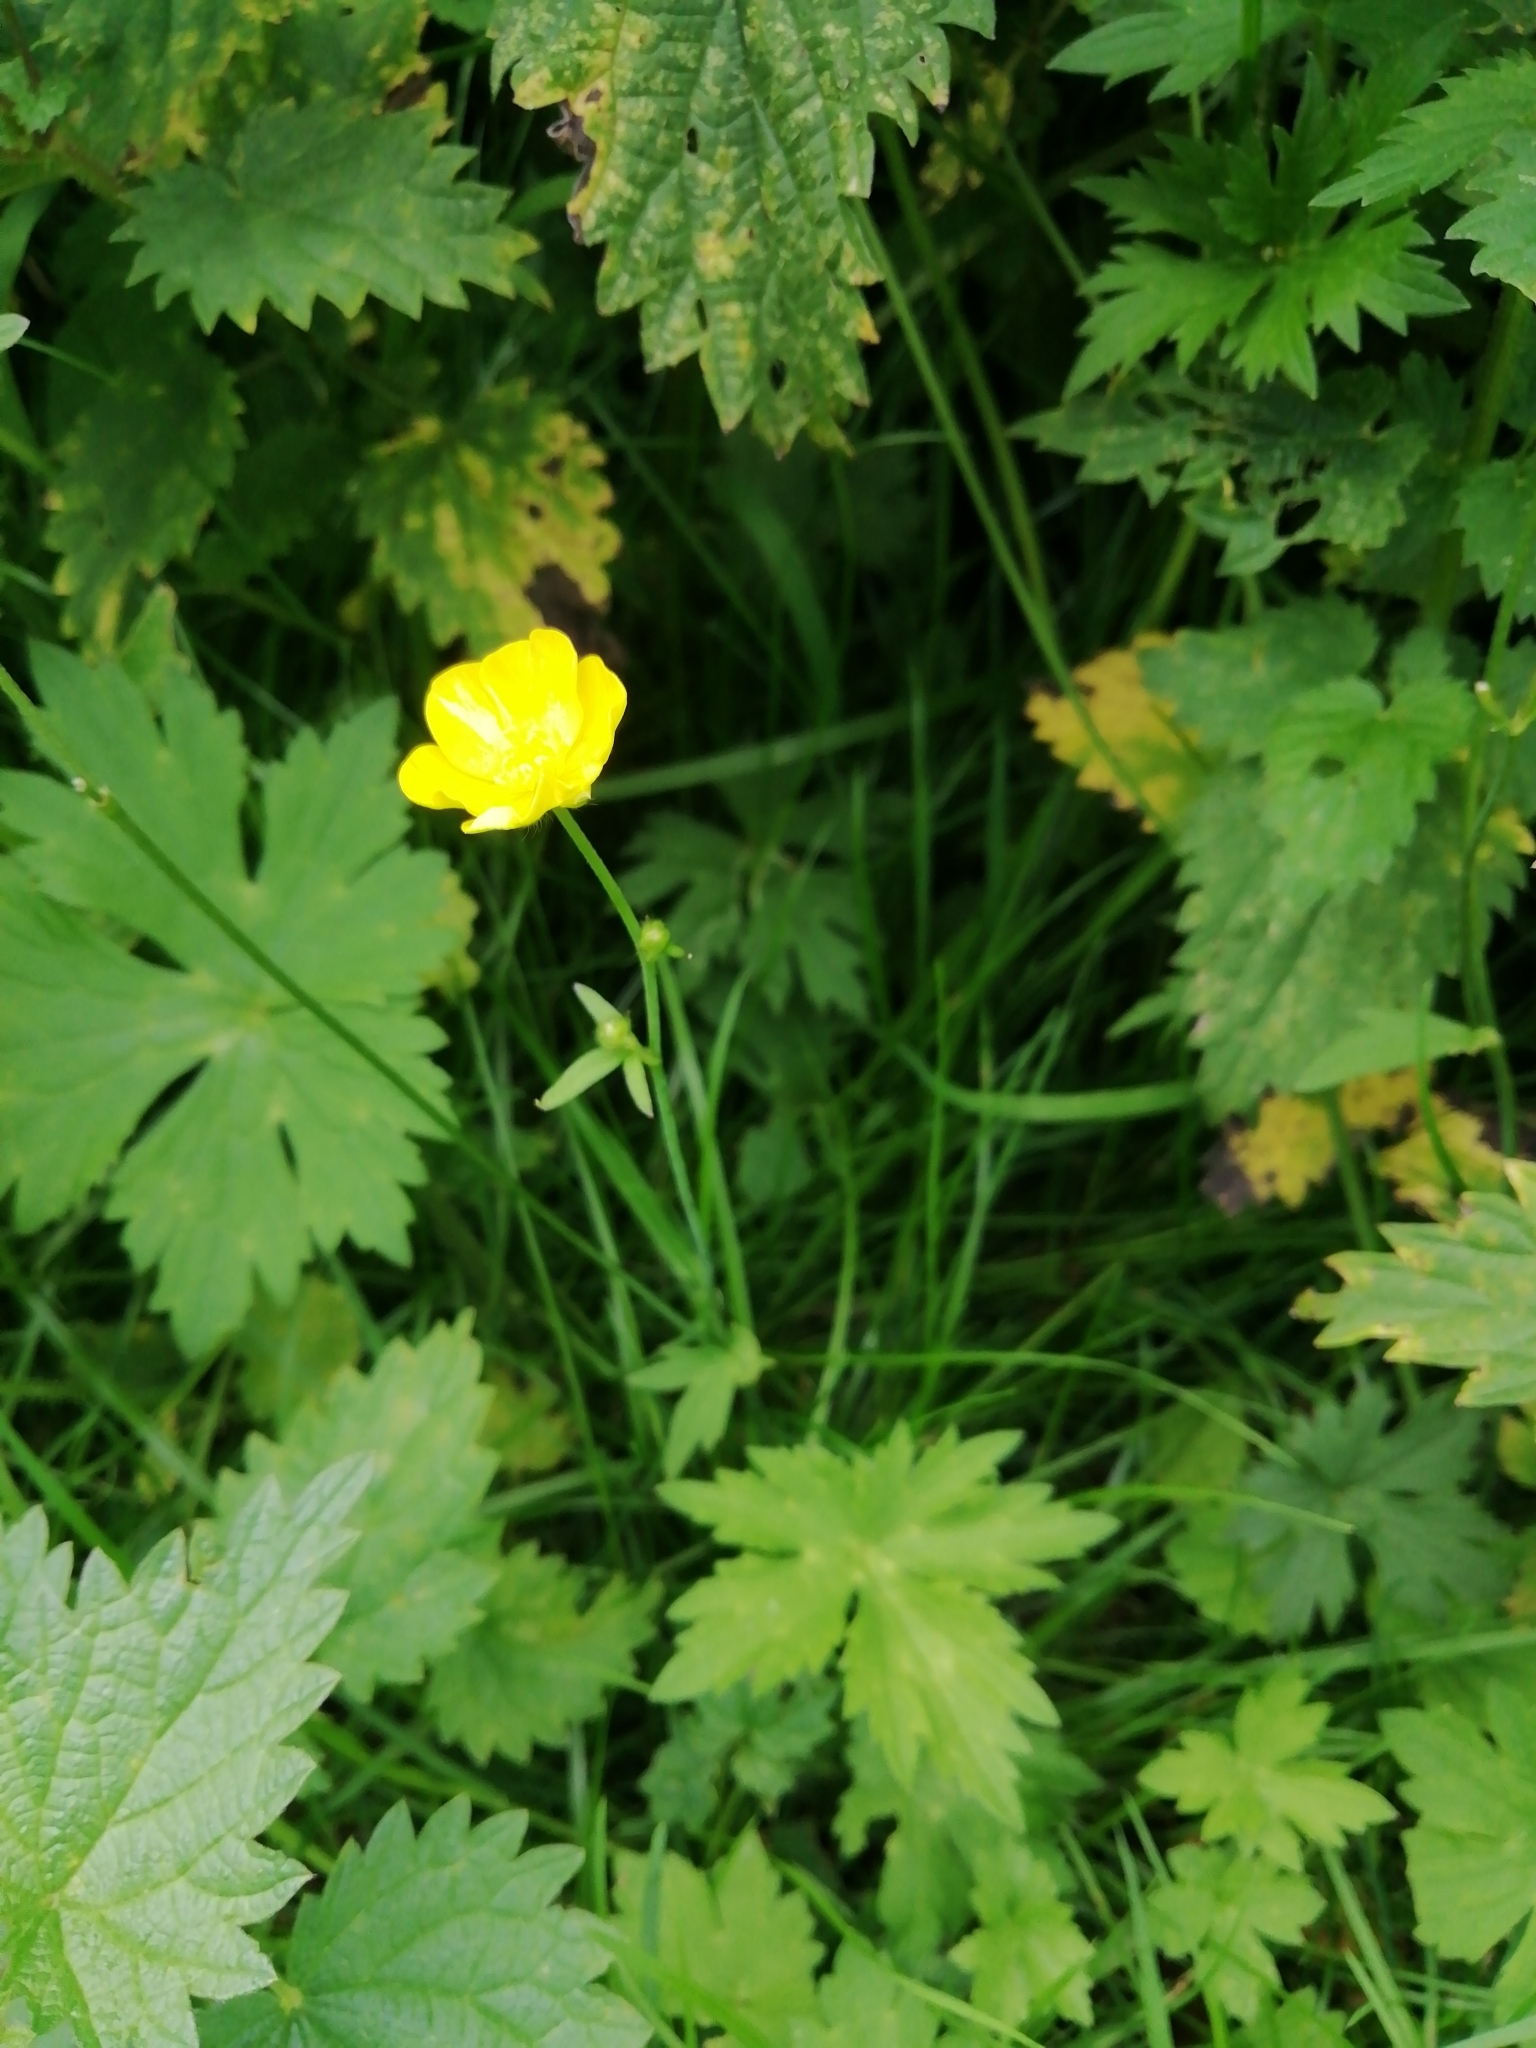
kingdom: Plantae
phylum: Tracheophyta
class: Magnoliopsida
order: Ranunculales
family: Ranunculaceae
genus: Ranunculus
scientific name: Ranunculus acris
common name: Meadow buttercup
